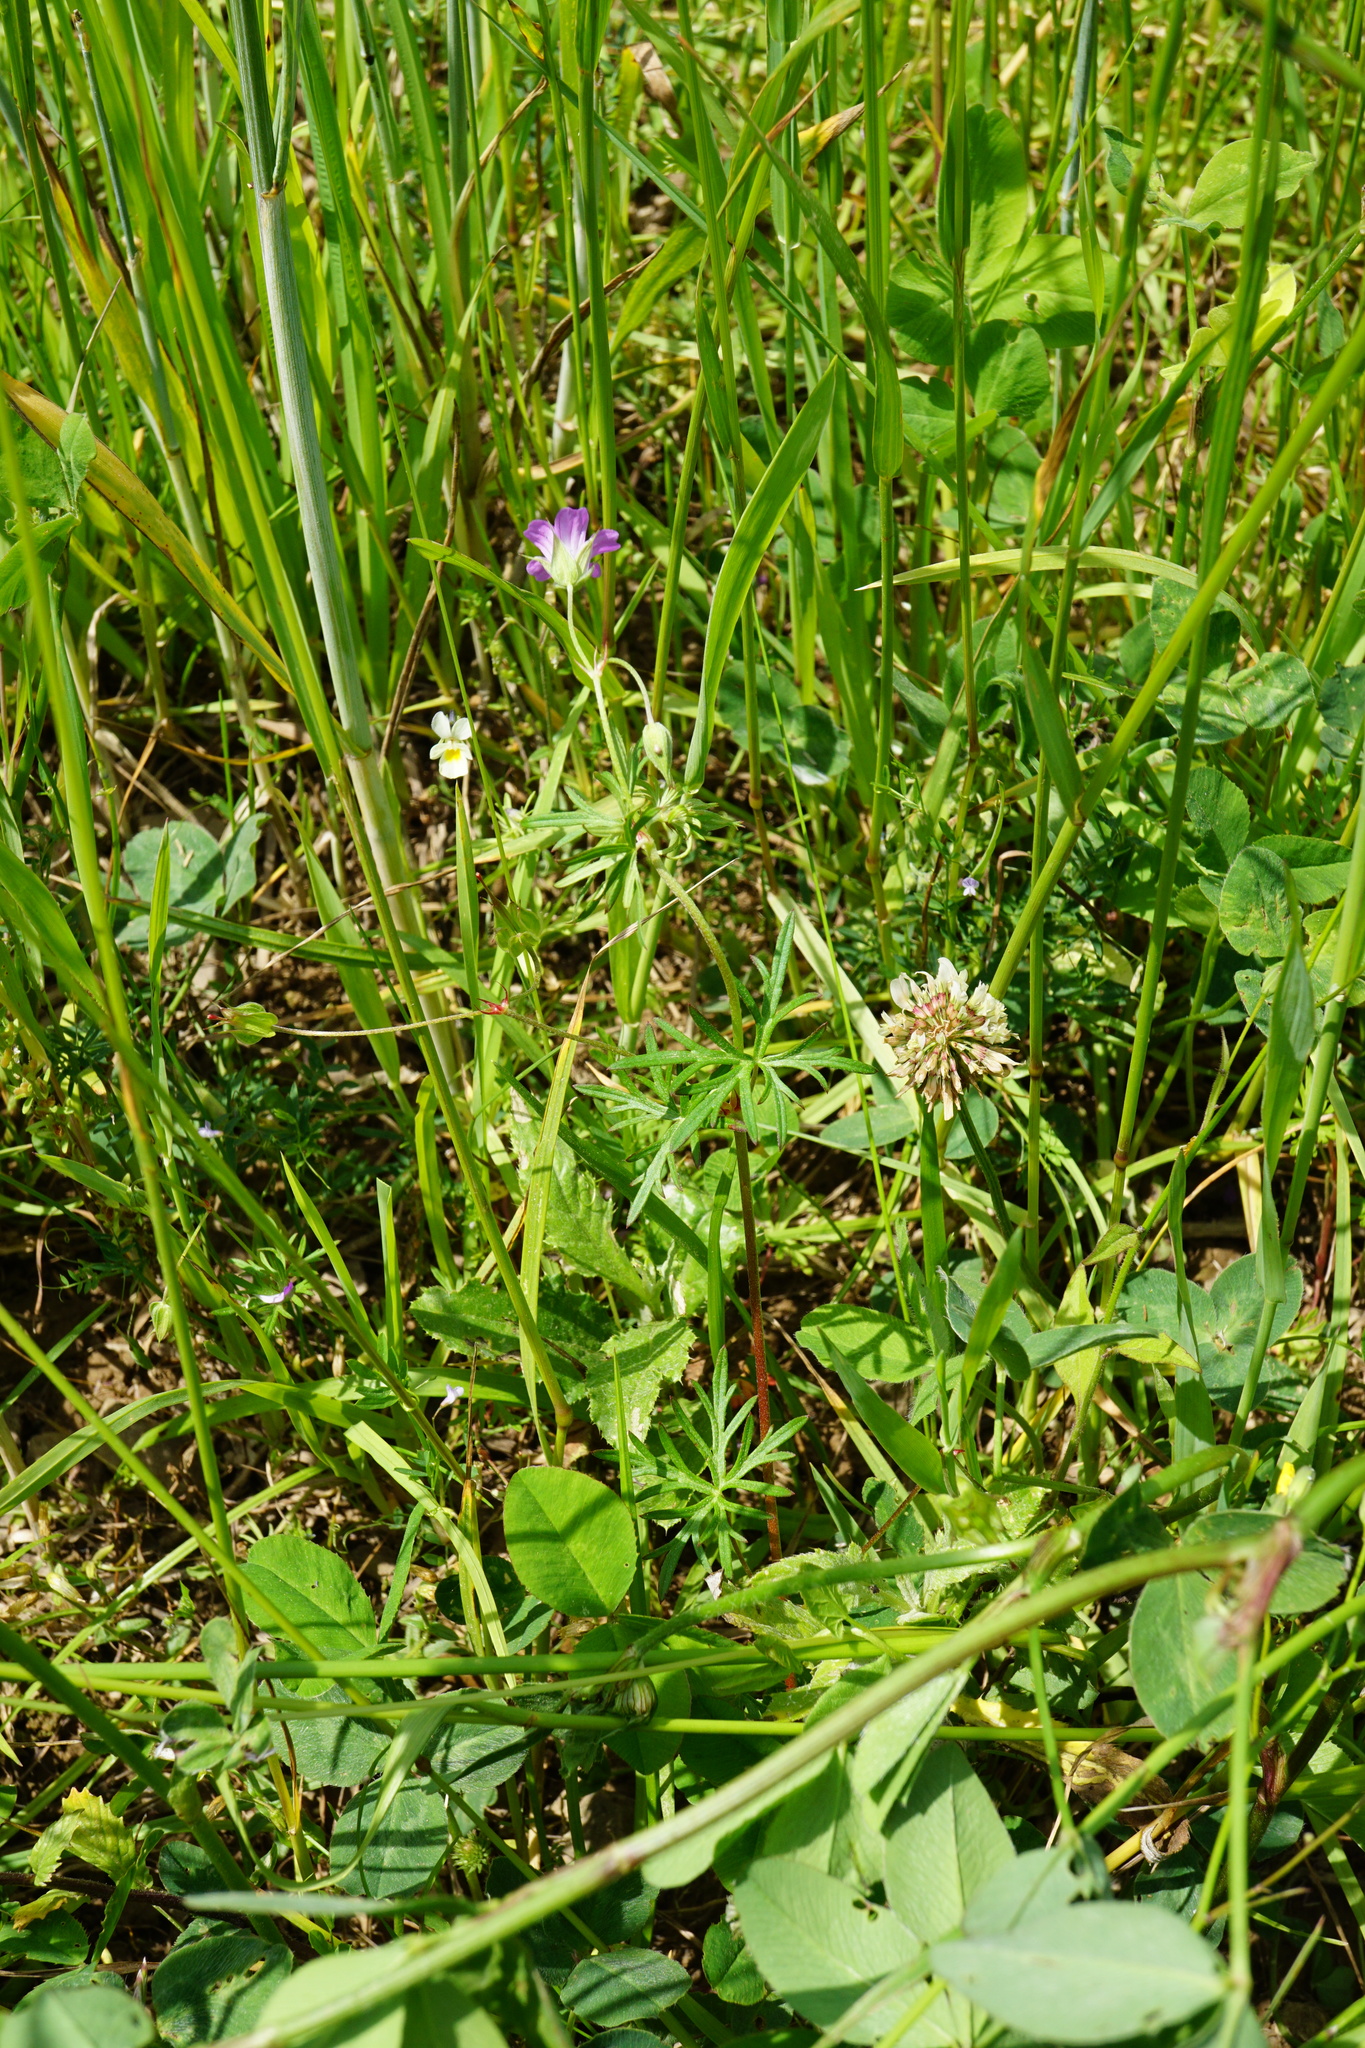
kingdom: Plantae
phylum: Tracheophyta
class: Magnoliopsida
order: Geraniales
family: Geraniaceae
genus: Geranium
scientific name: Geranium columbinum
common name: Long-stalked crane's-bill
